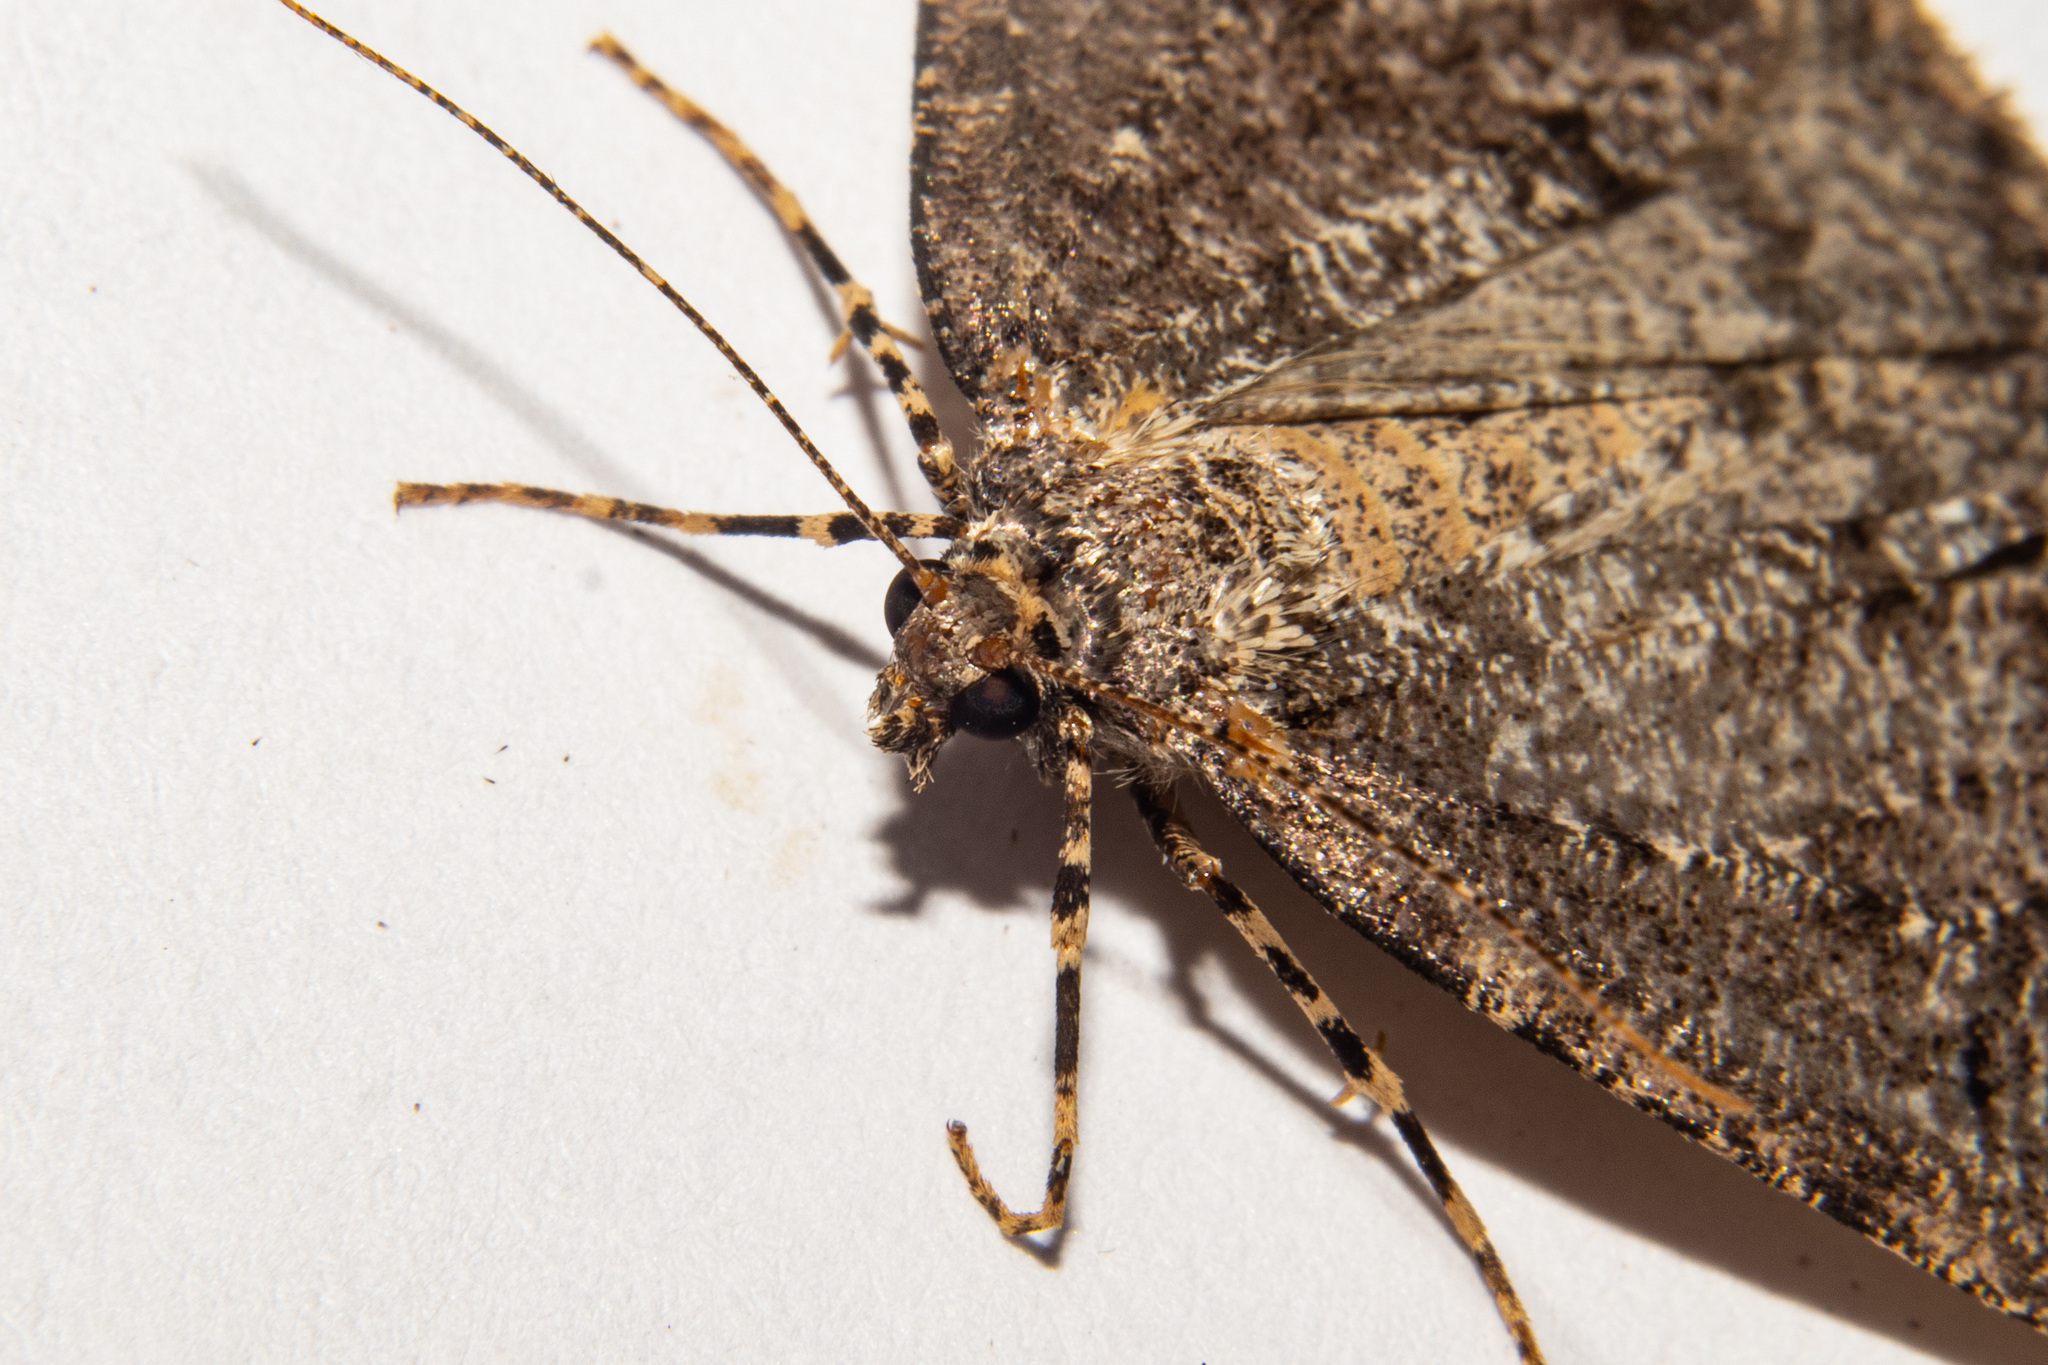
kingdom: Animalia
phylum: Arthropoda
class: Insecta
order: Lepidoptera
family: Geometridae
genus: Pseudocoremia
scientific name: Pseudocoremia terrena
